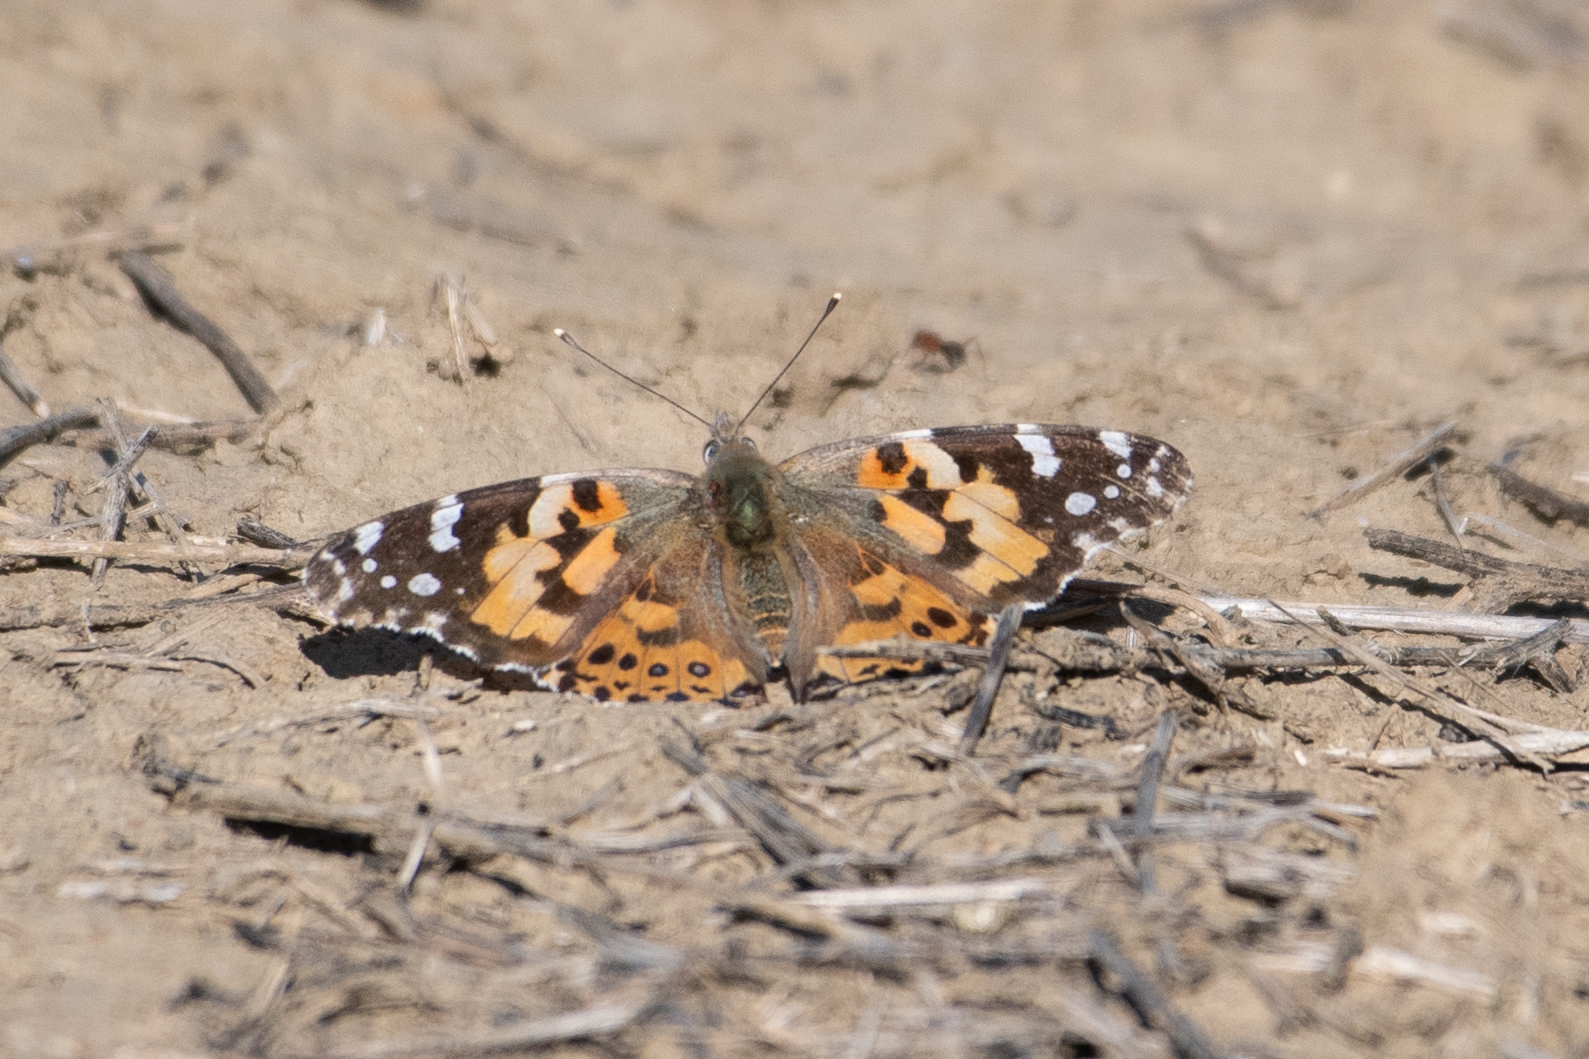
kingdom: Animalia
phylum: Arthropoda
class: Insecta
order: Lepidoptera
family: Nymphalidae
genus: Vanessa
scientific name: Vanessa cardui
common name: Painted lady
